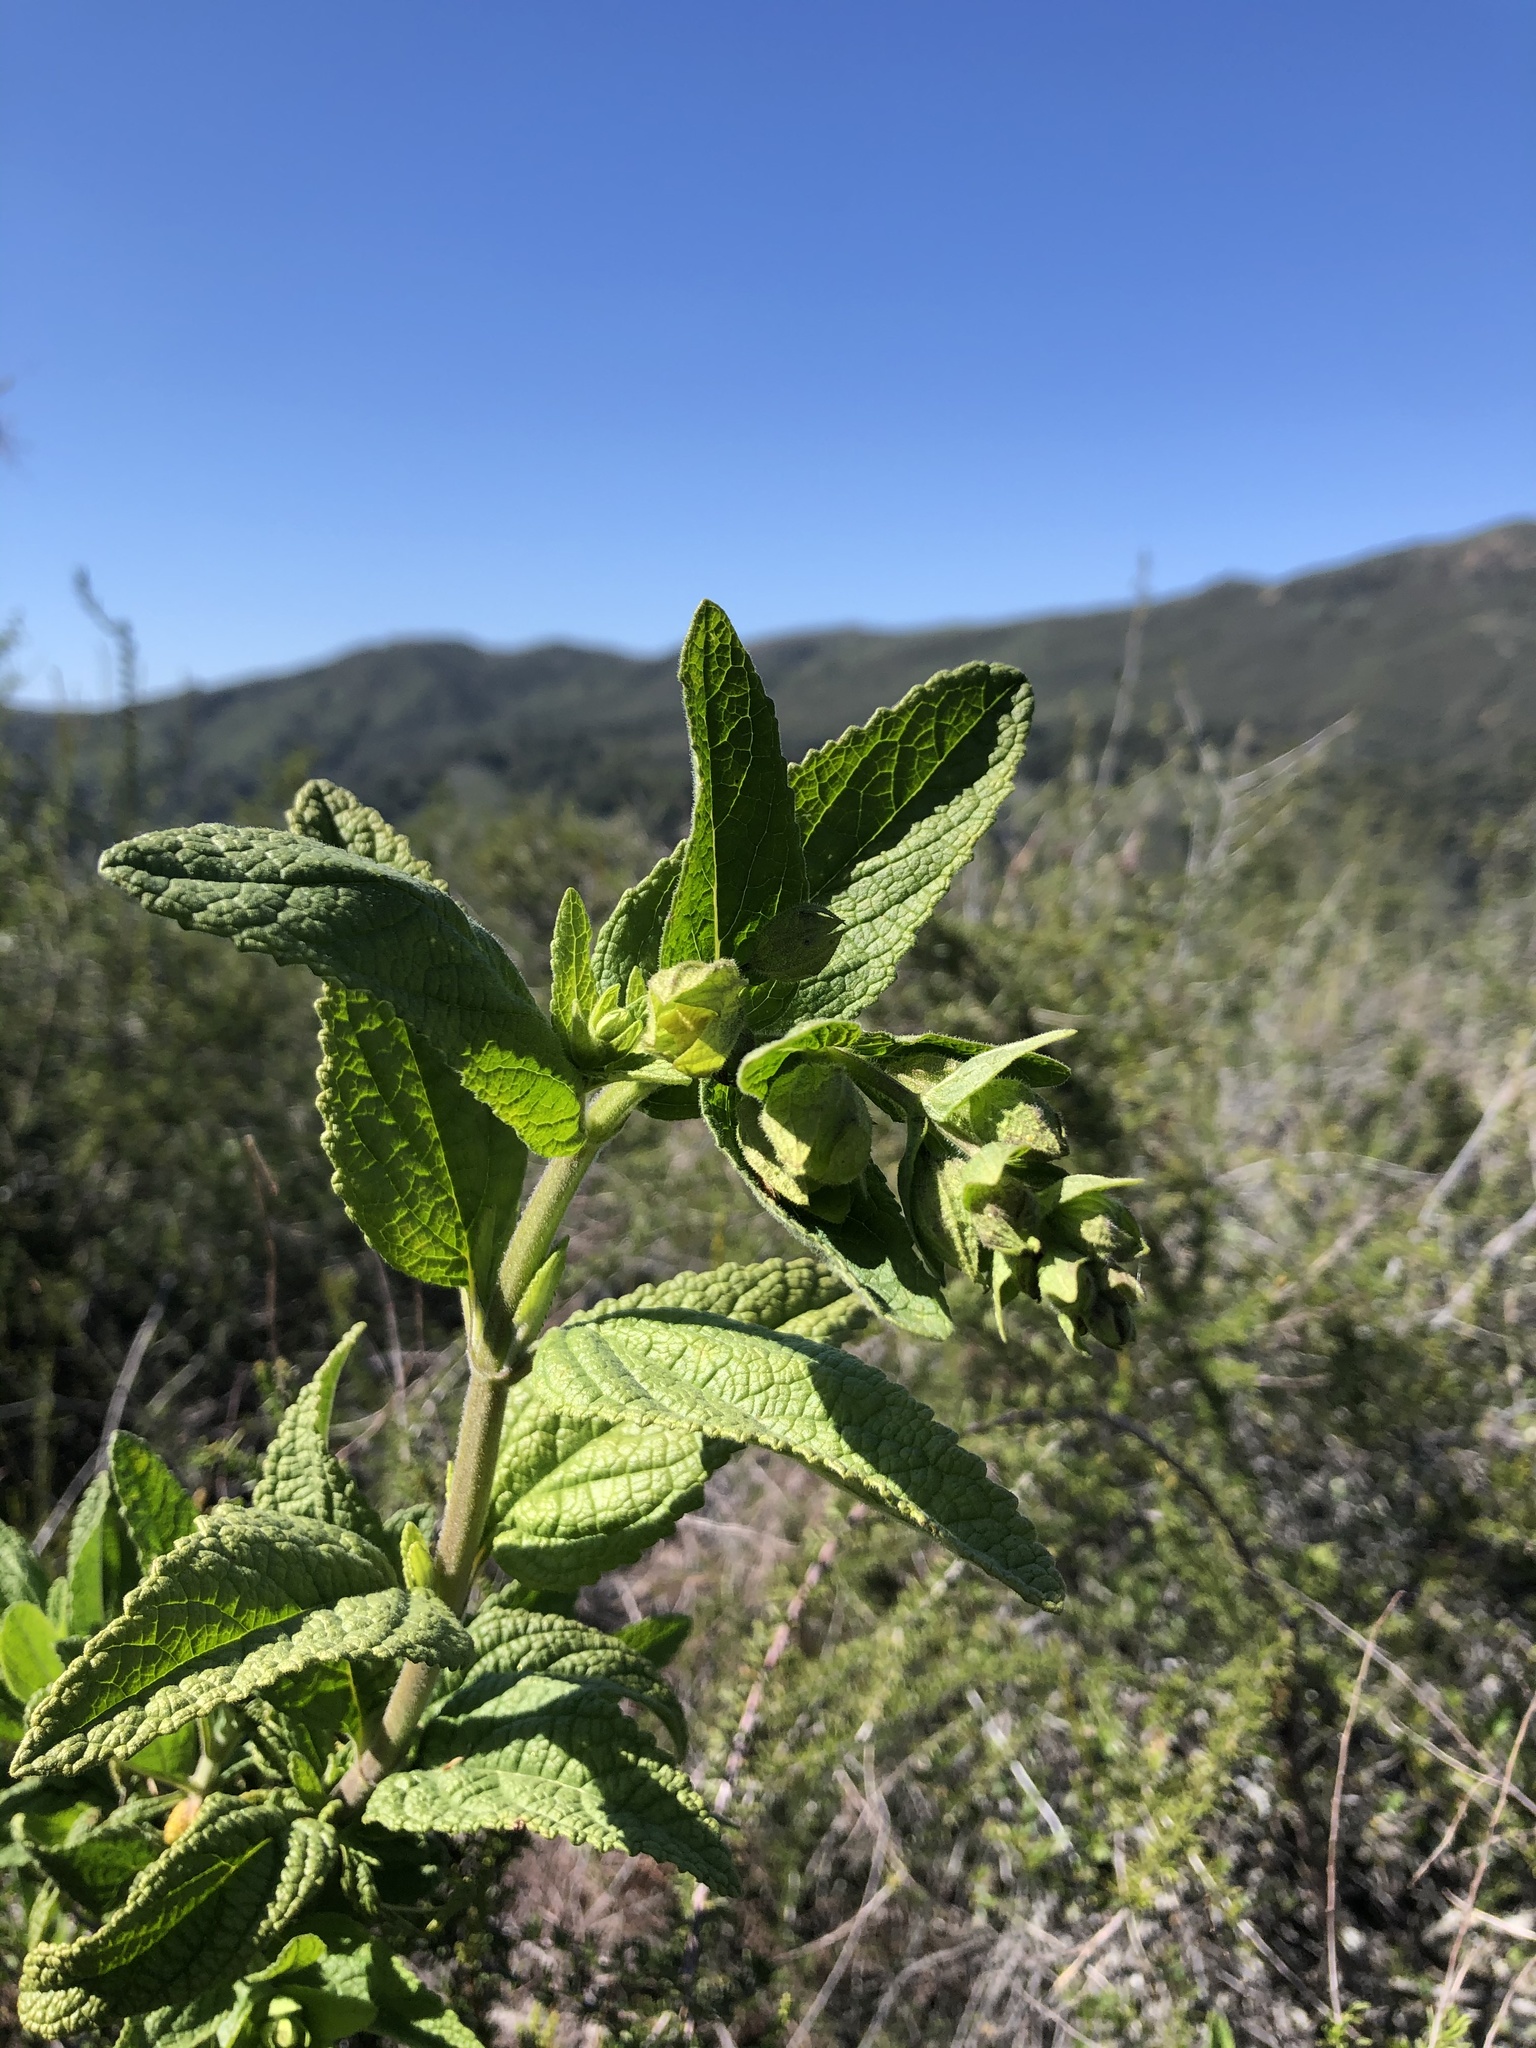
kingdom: Plantae
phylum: Tracheophyta
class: Magnoliopsida
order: Lamiales
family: Lamiaceae
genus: Lepechinia
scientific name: Lepechinia calycina
